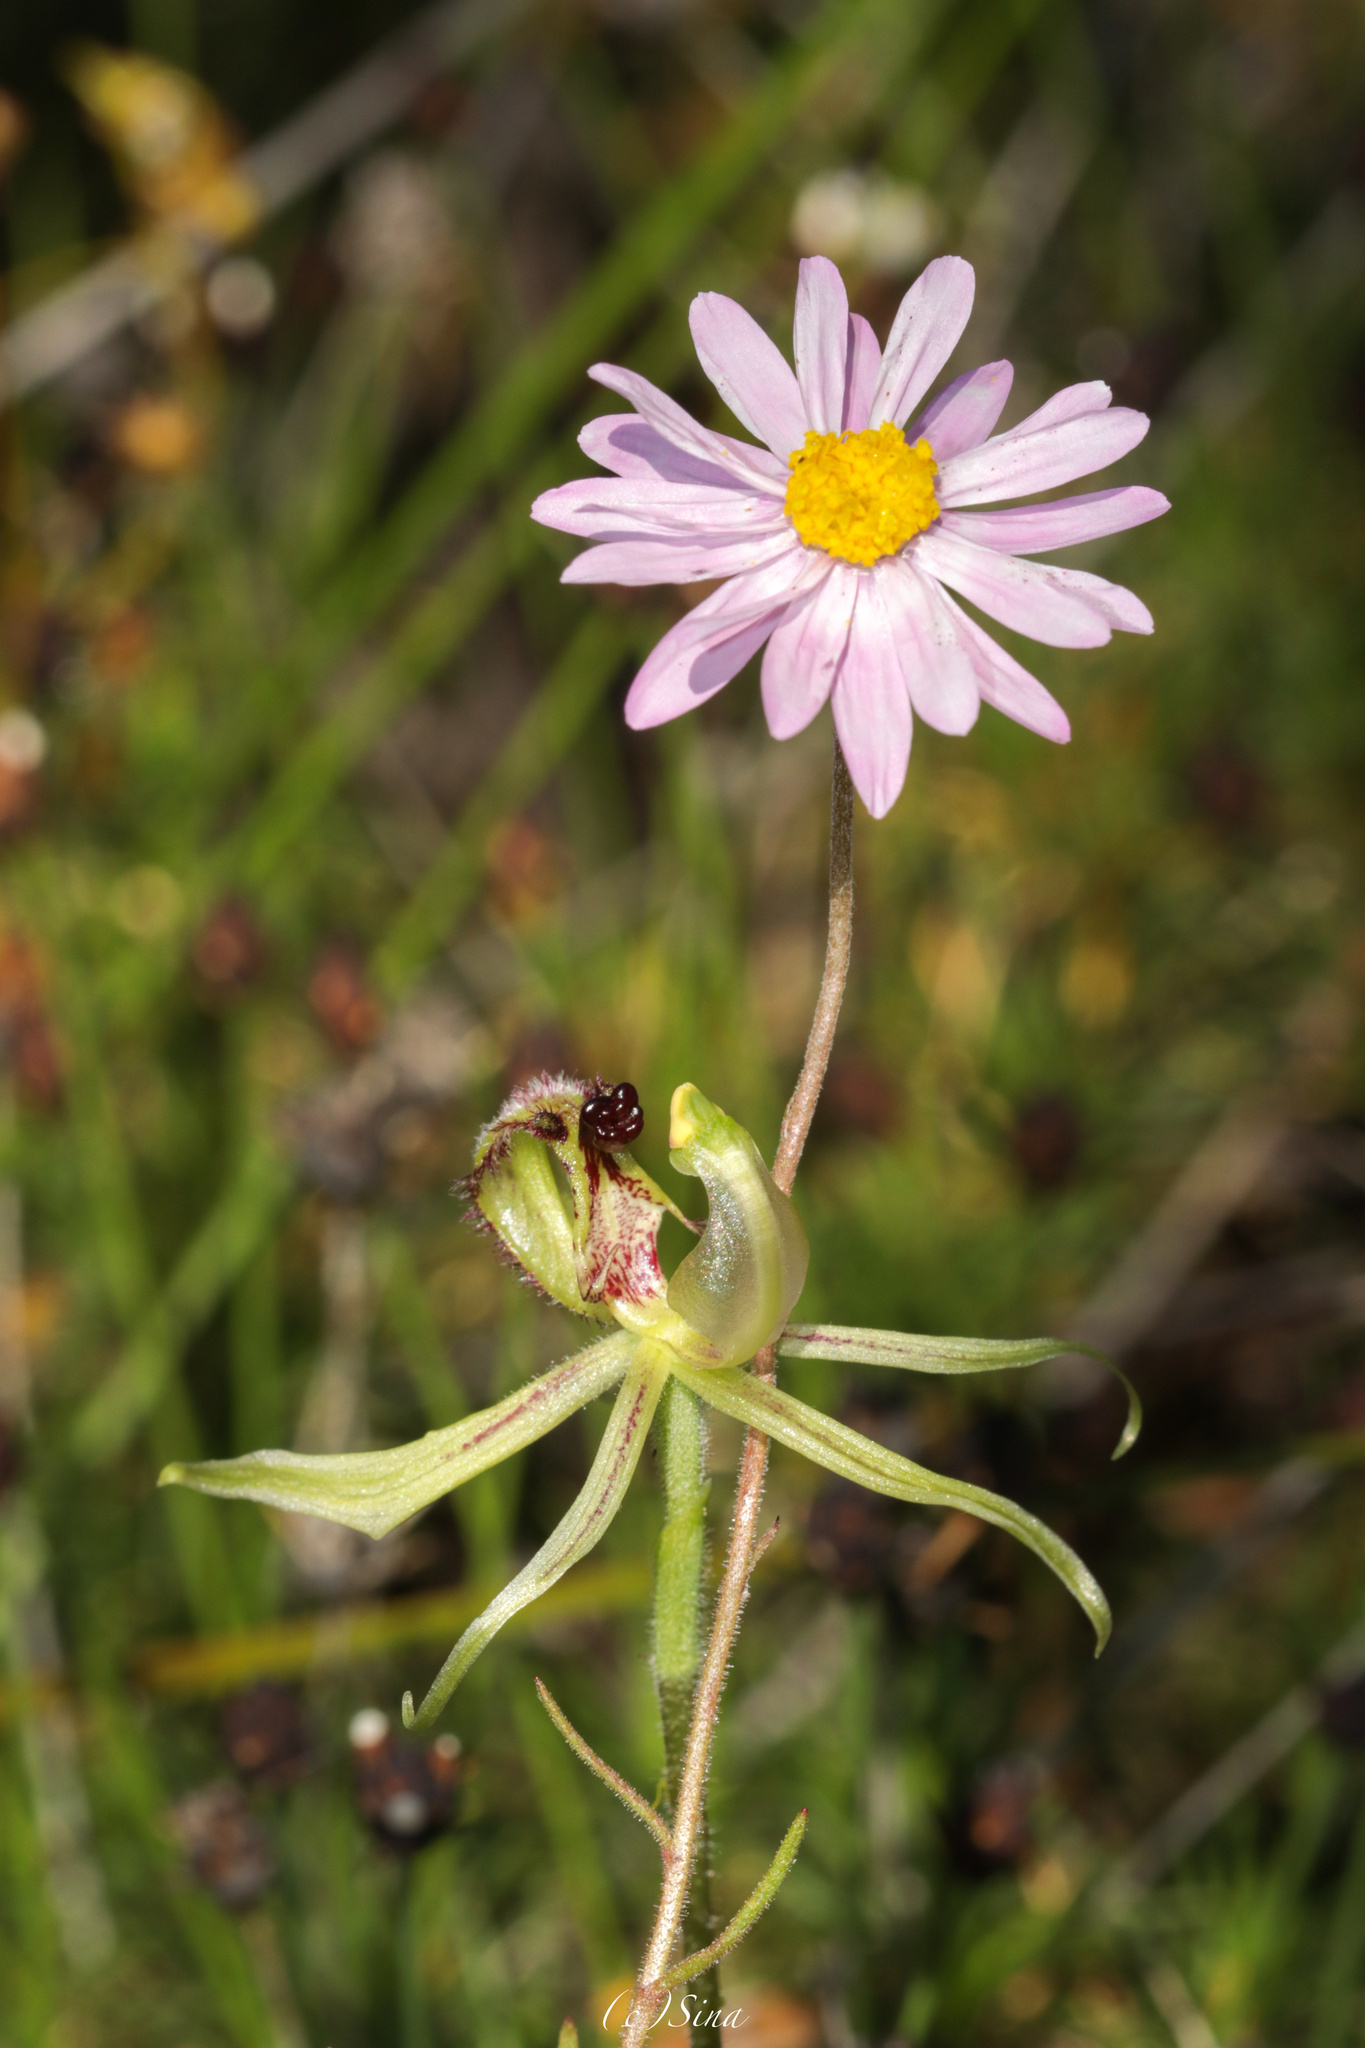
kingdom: Plantae
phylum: Tracheophyta
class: Liliopsida
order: Asparagales
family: Orchidaceae
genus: Caladenia
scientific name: Caladenia mesocera
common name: Narrow-lipped dragon orchid
